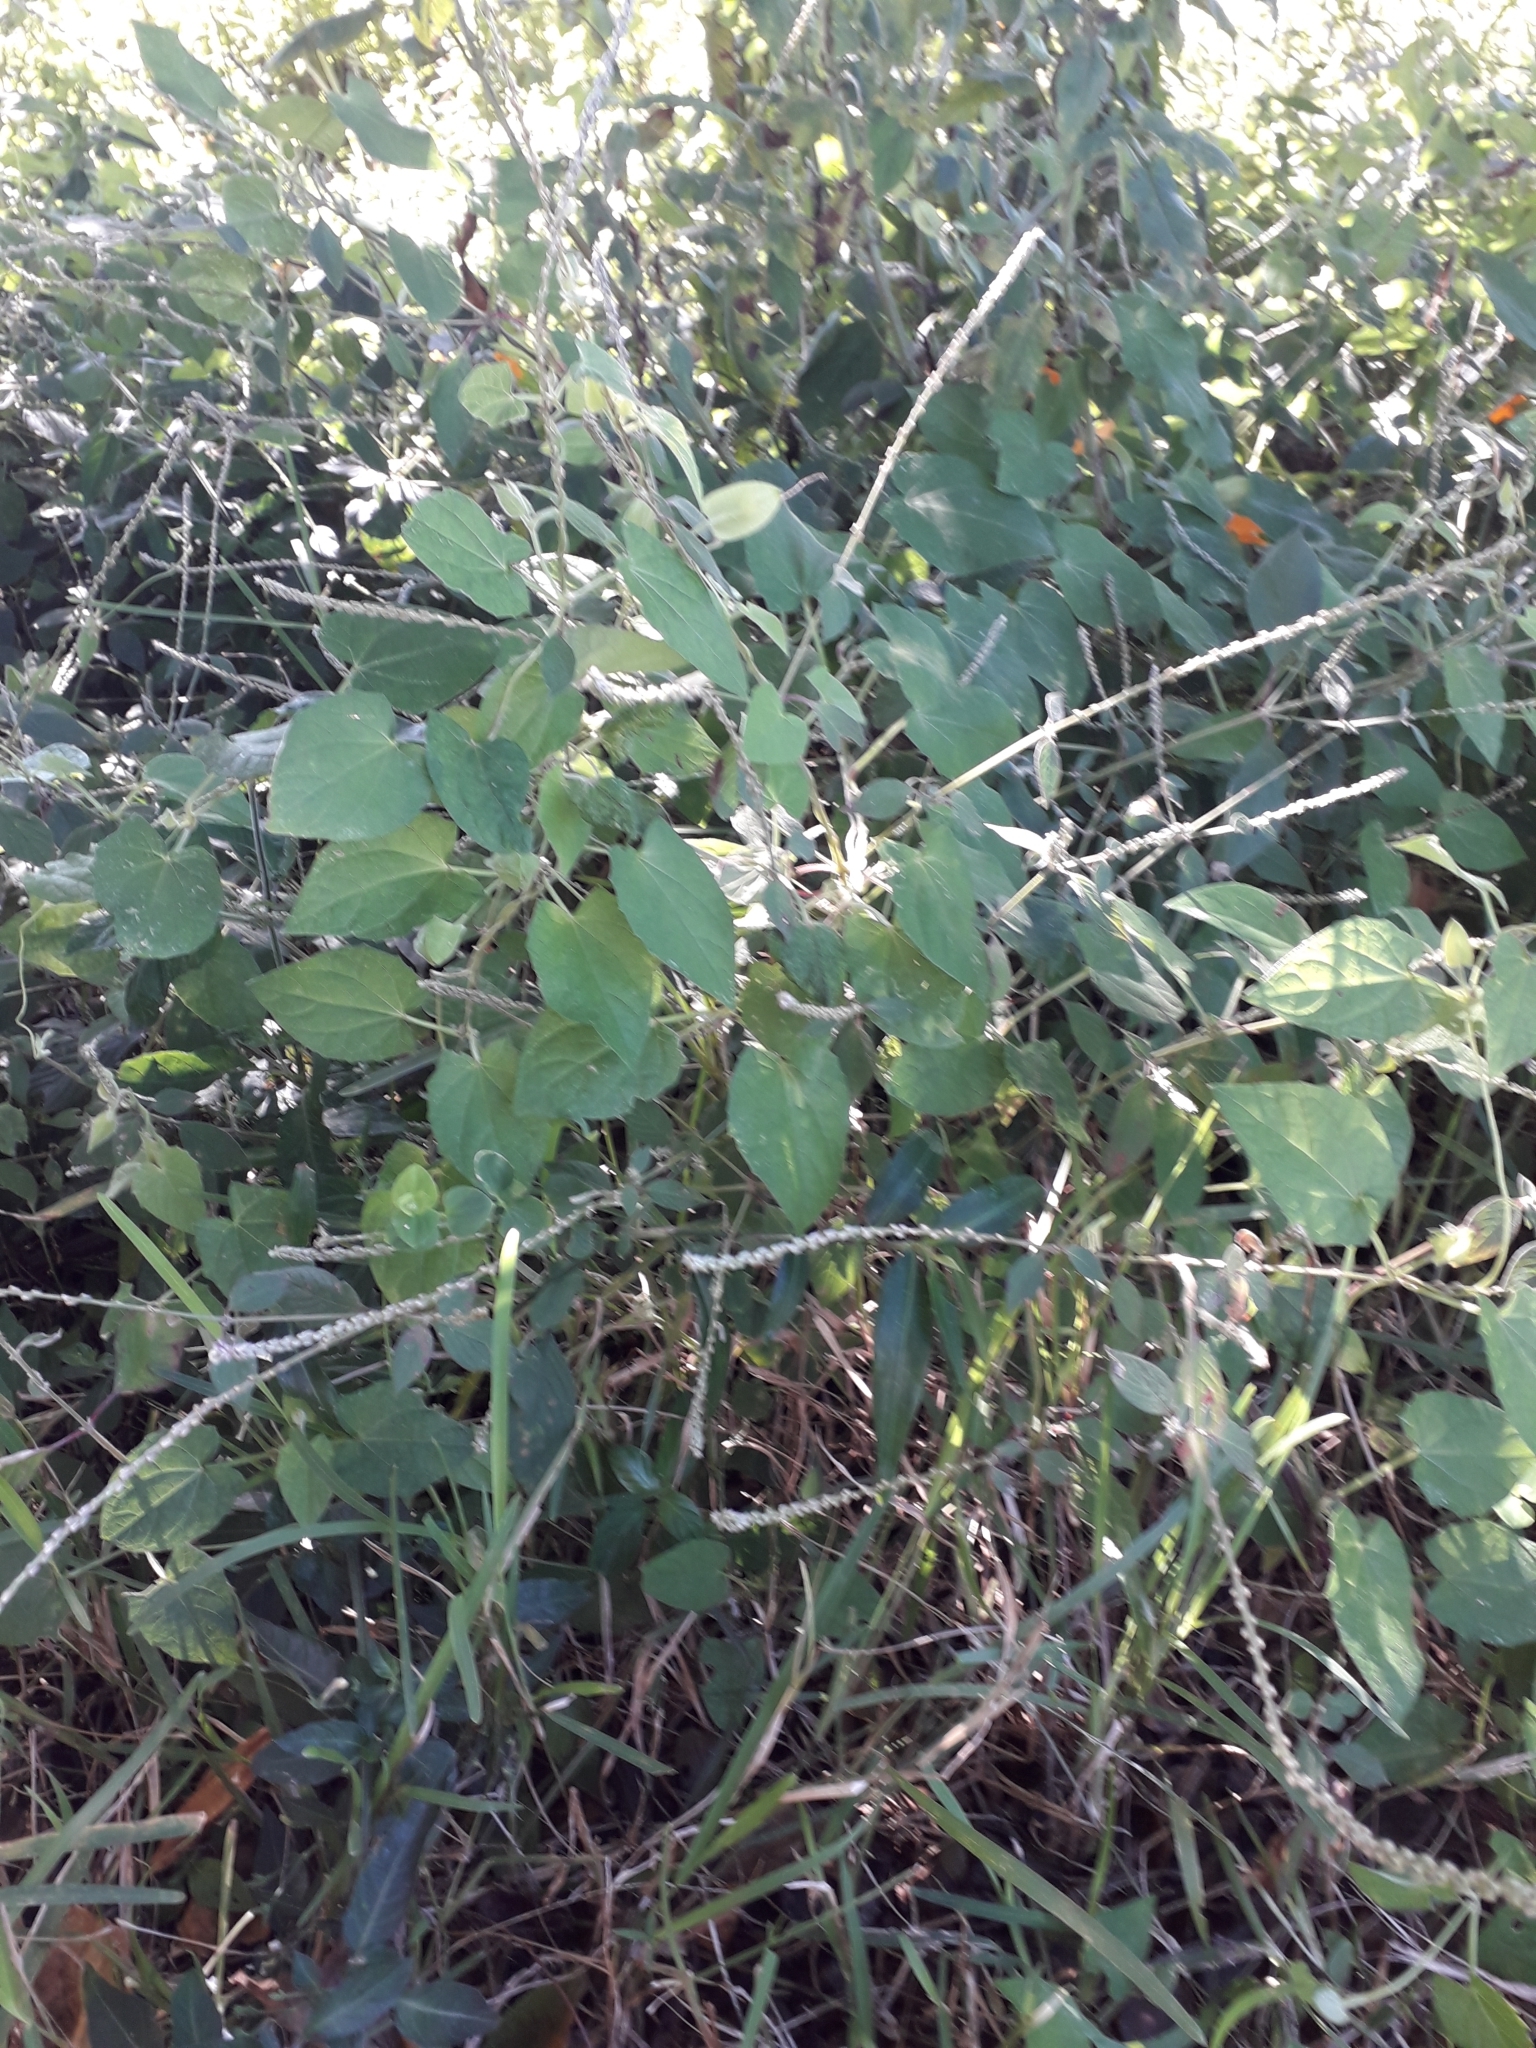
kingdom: Plantae
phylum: Tracheophyta
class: Magnoliopsida
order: Caryophyllales
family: Amaranthaceae
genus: Achyranthes
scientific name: Achyranthes aspera
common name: Devil's horsewhip
